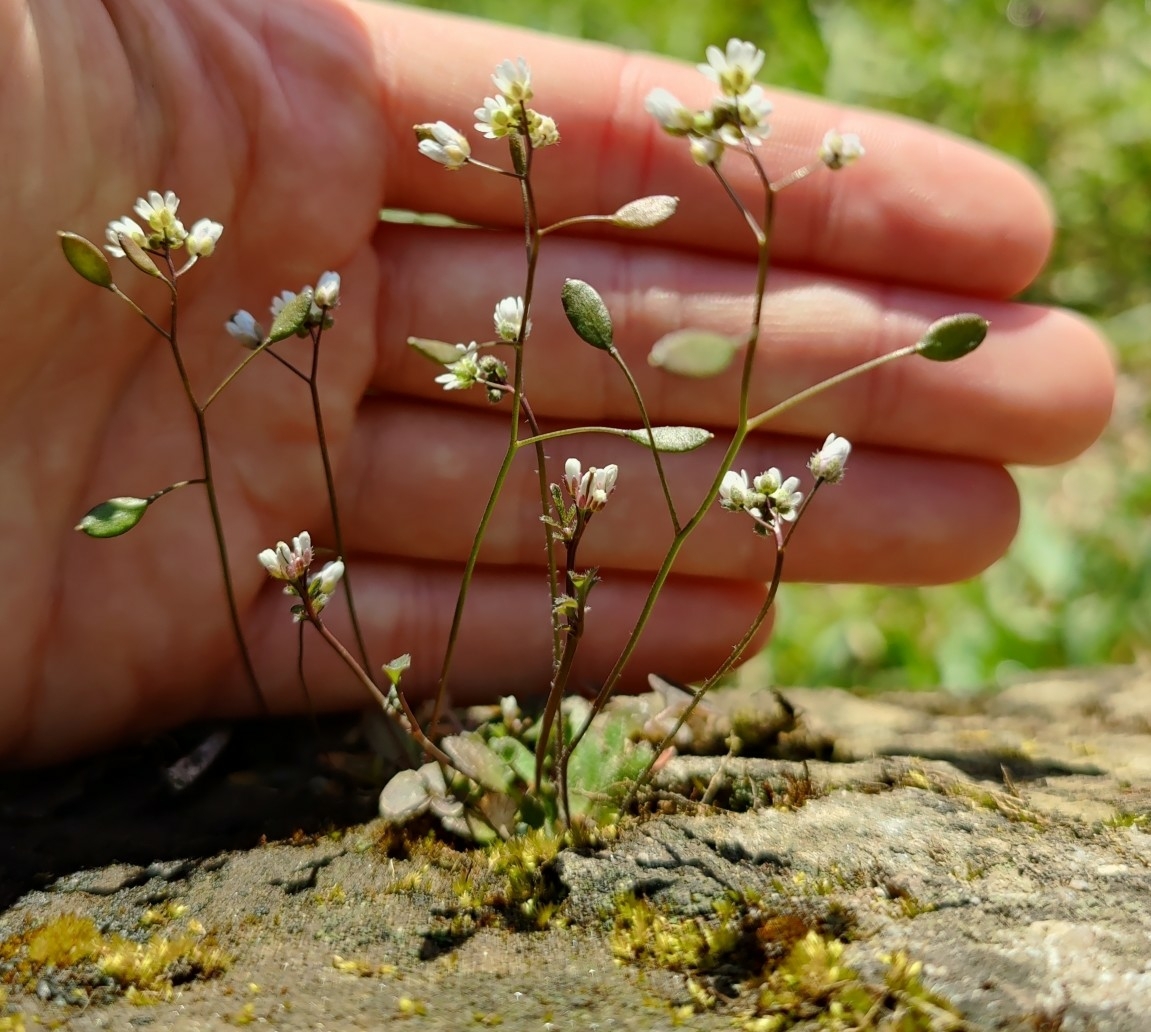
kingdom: Plantae
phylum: Tracheophyta
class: Magnoliopsida
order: Brassicales
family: Brassicaceae
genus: Draba
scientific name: Draba verna
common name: Spring draba
